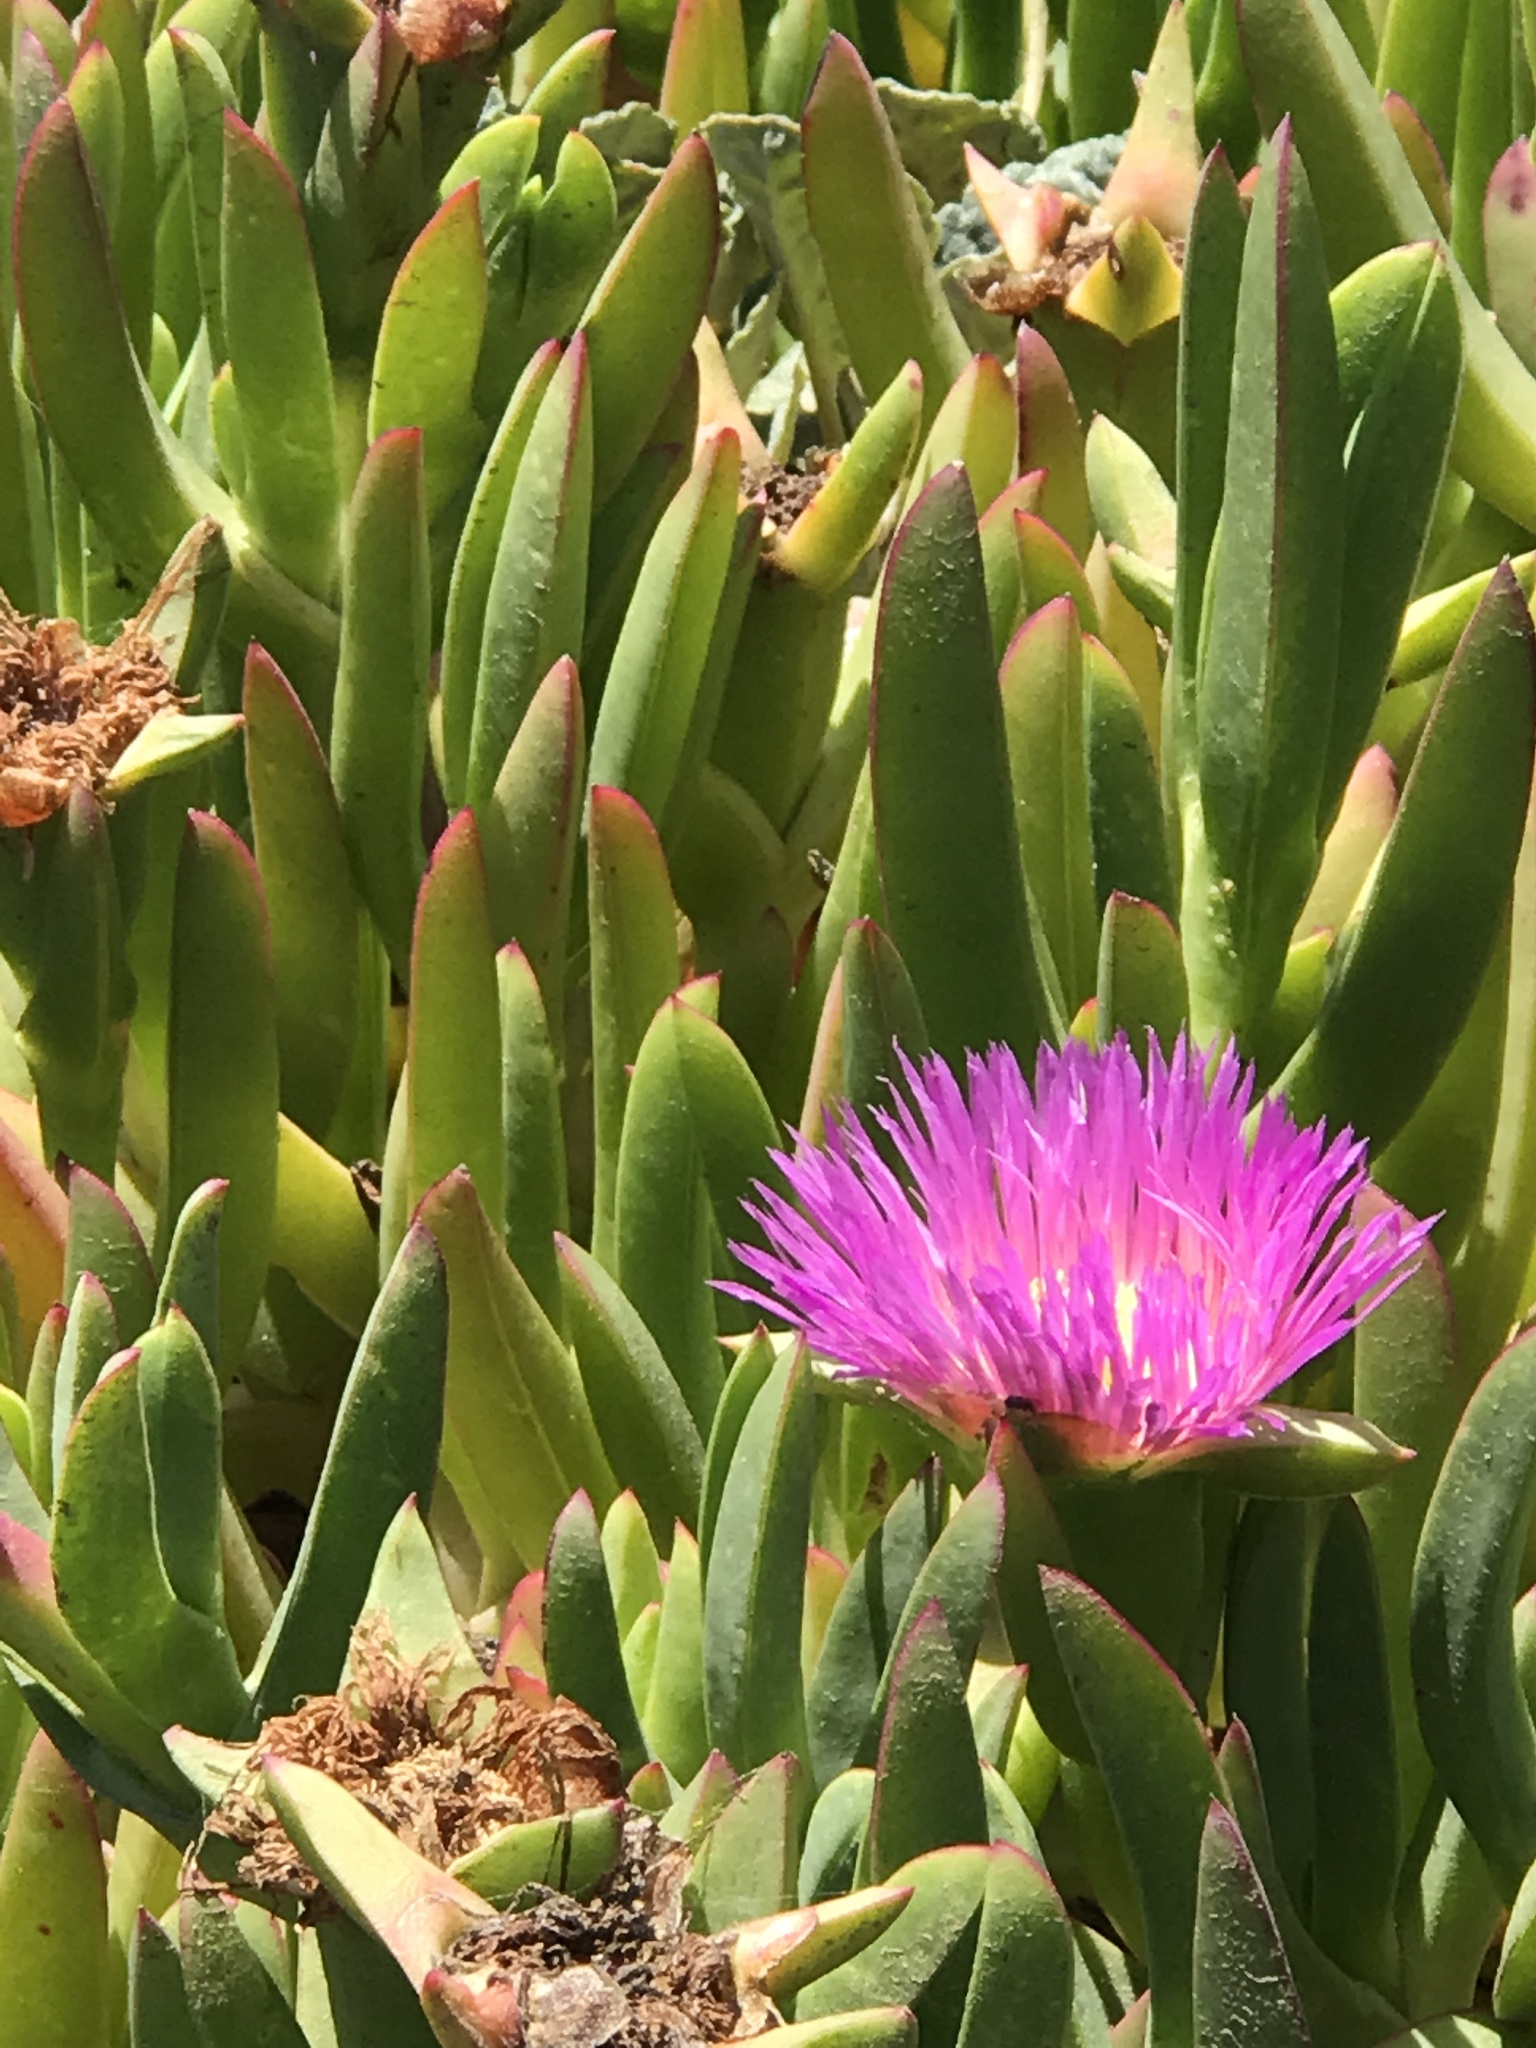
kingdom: Plantae
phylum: Tracheophyta
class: Magnoliopsida
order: Caryophyllales
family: Aizoaceae
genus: Carpobrotus
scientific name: Carpobrotus chilensis
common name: Sea fig
